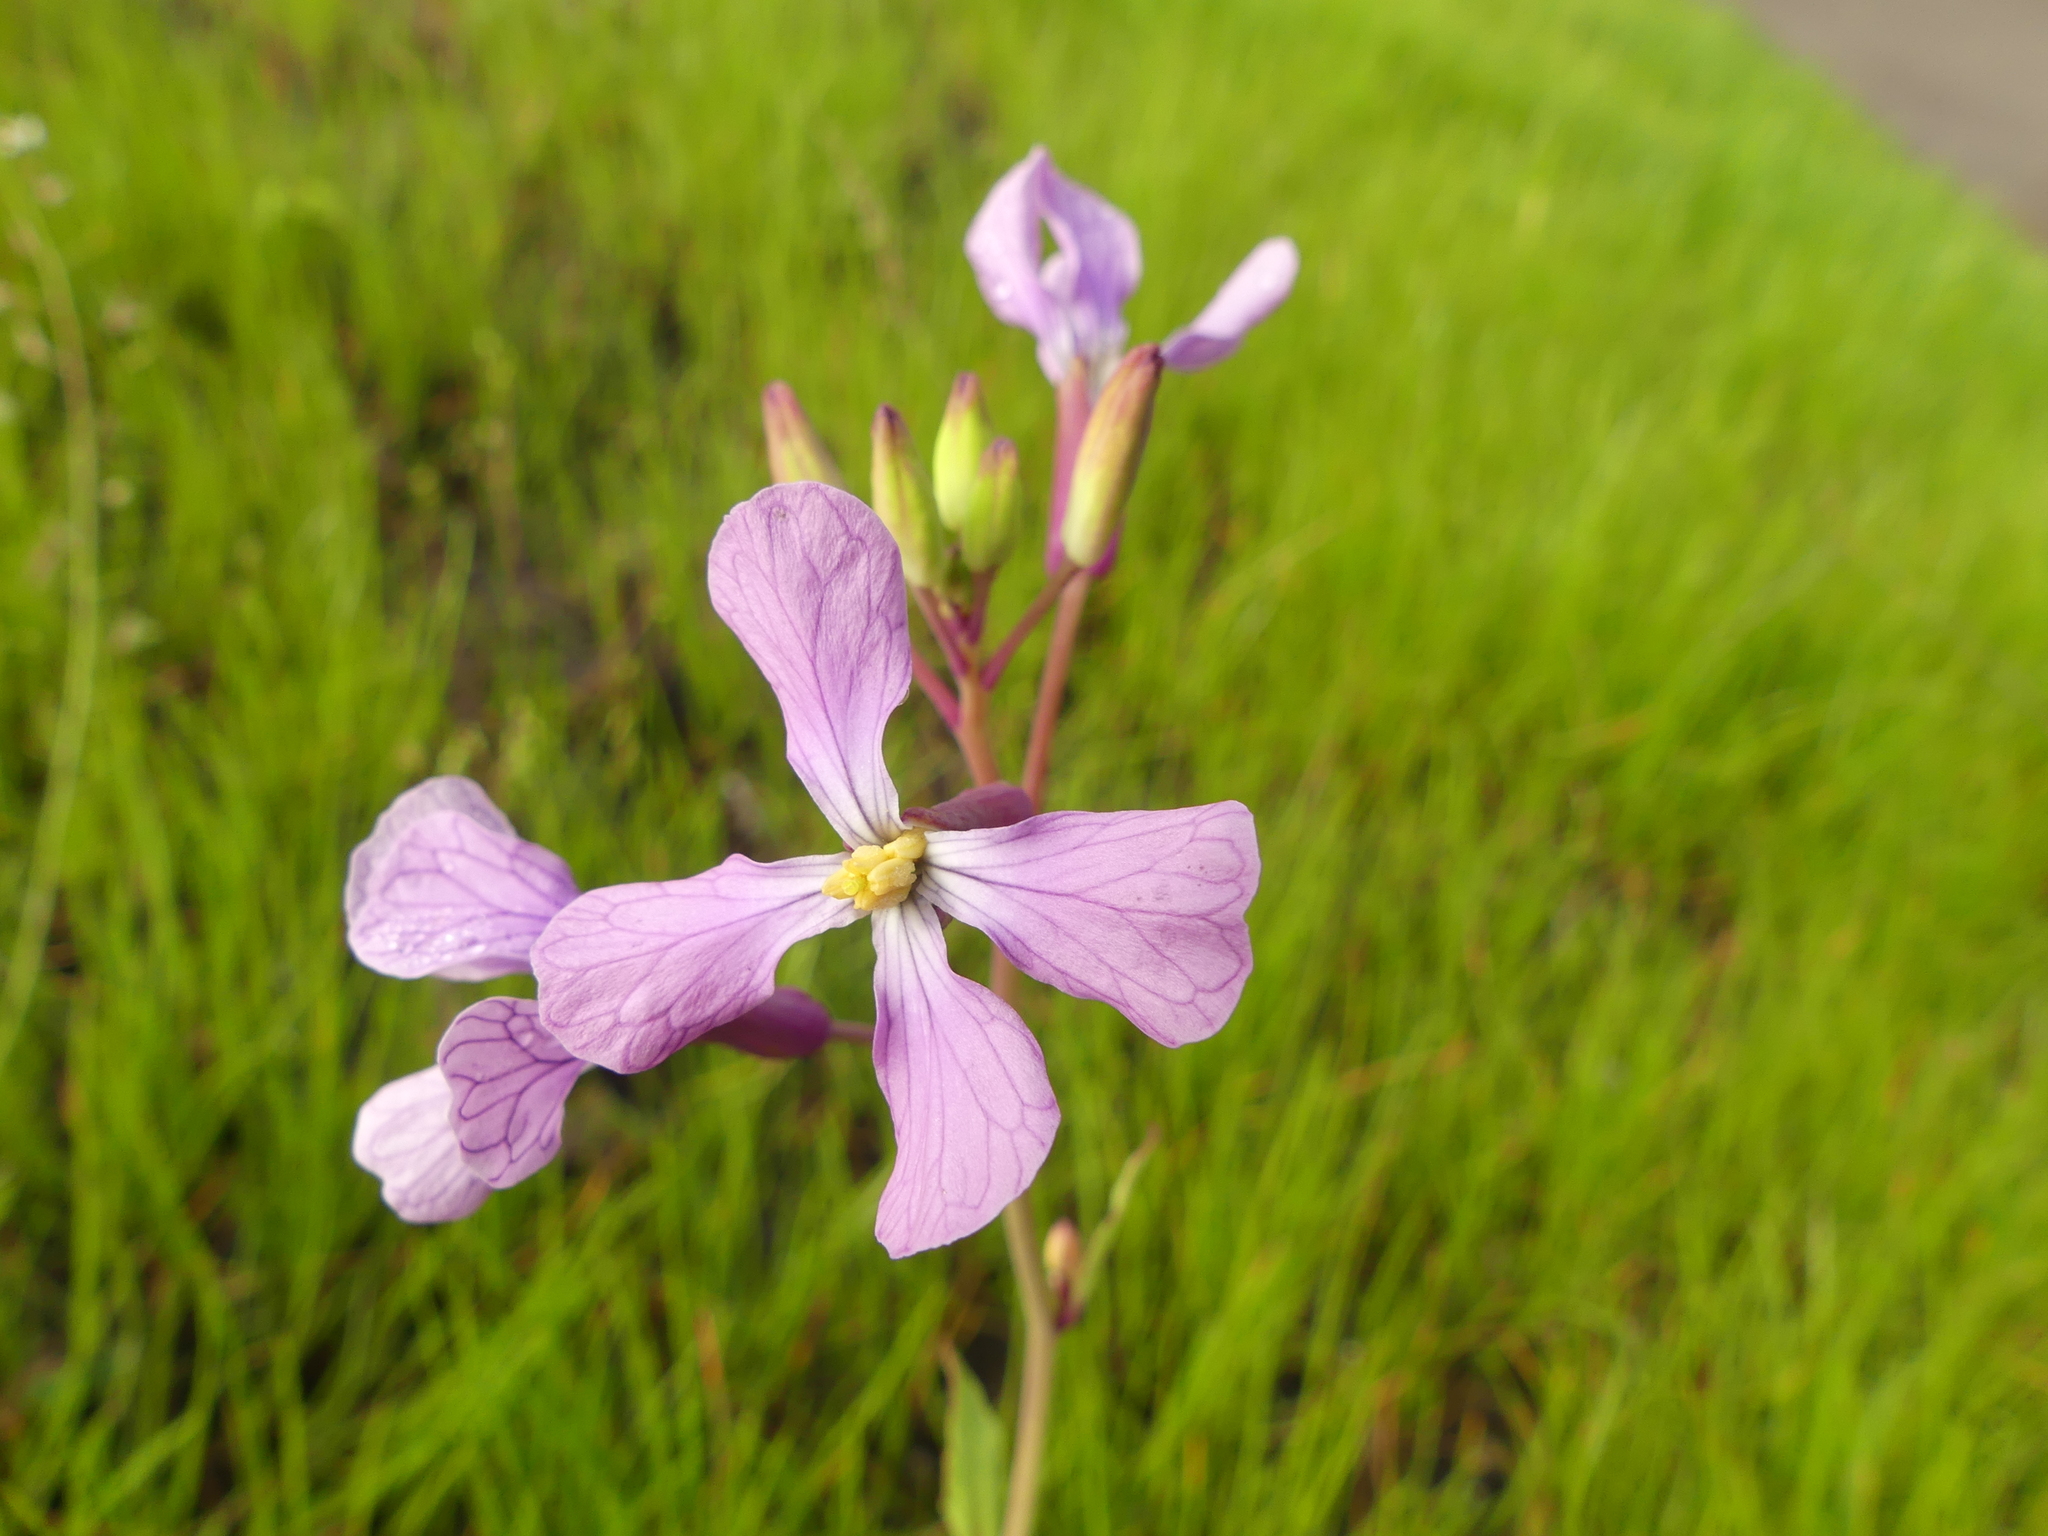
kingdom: Plantae
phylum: Tracheophyta
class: Magnoliopsida
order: Brassicales
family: Brassicaceae
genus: Raphanus
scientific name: Raphanus sativus
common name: Cultivated radish
